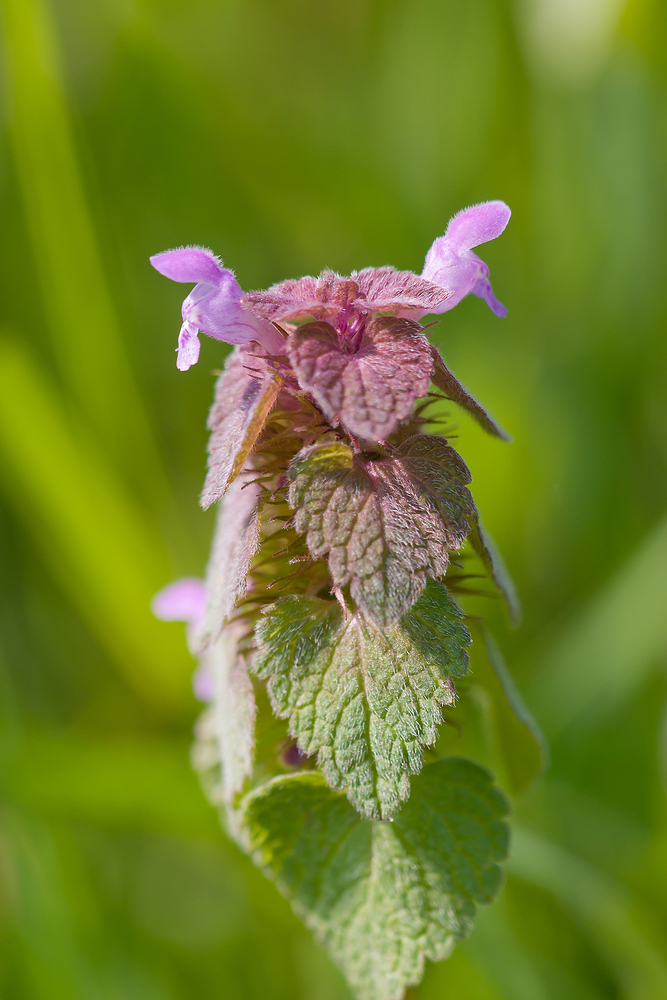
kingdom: Plantae
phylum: Tracheophyta
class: Magnoliopsida
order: Lamiales
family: Lamiaceae
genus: Lamium
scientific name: Lamium purpureum
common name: Red dead-nettle
